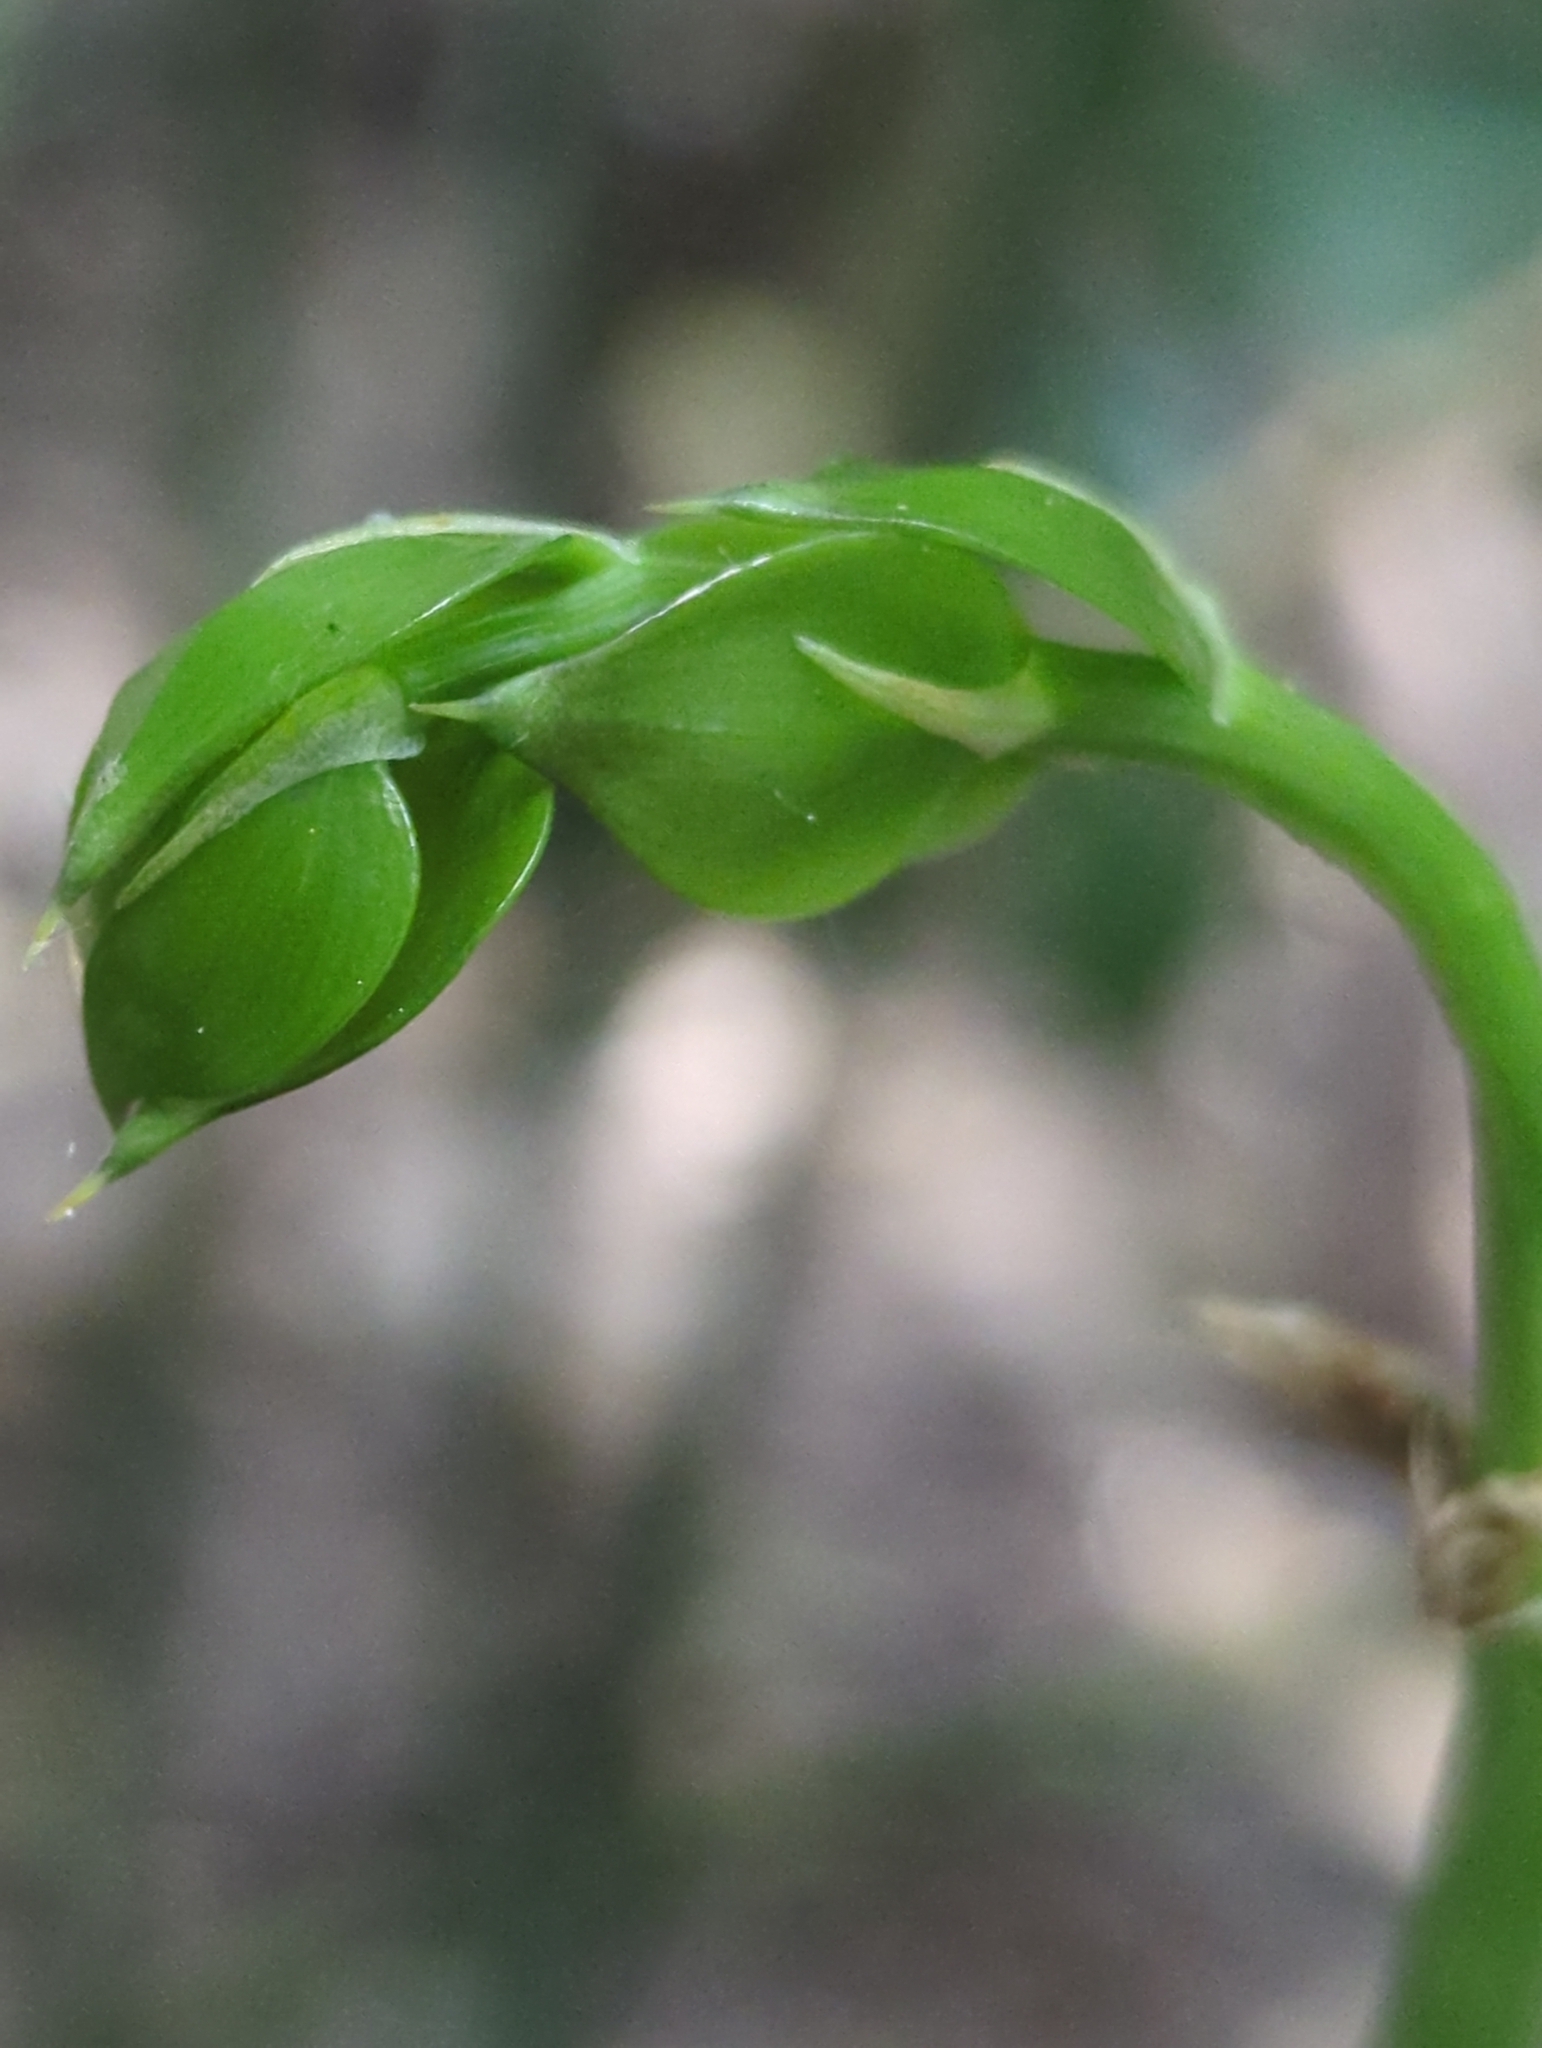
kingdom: Plantae
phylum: Tracheophyta
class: Liliopsida
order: Asparagales
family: Asparagaceae
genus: Ruscus
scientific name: Ruscus aculeatus
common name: Butcher's-broom
